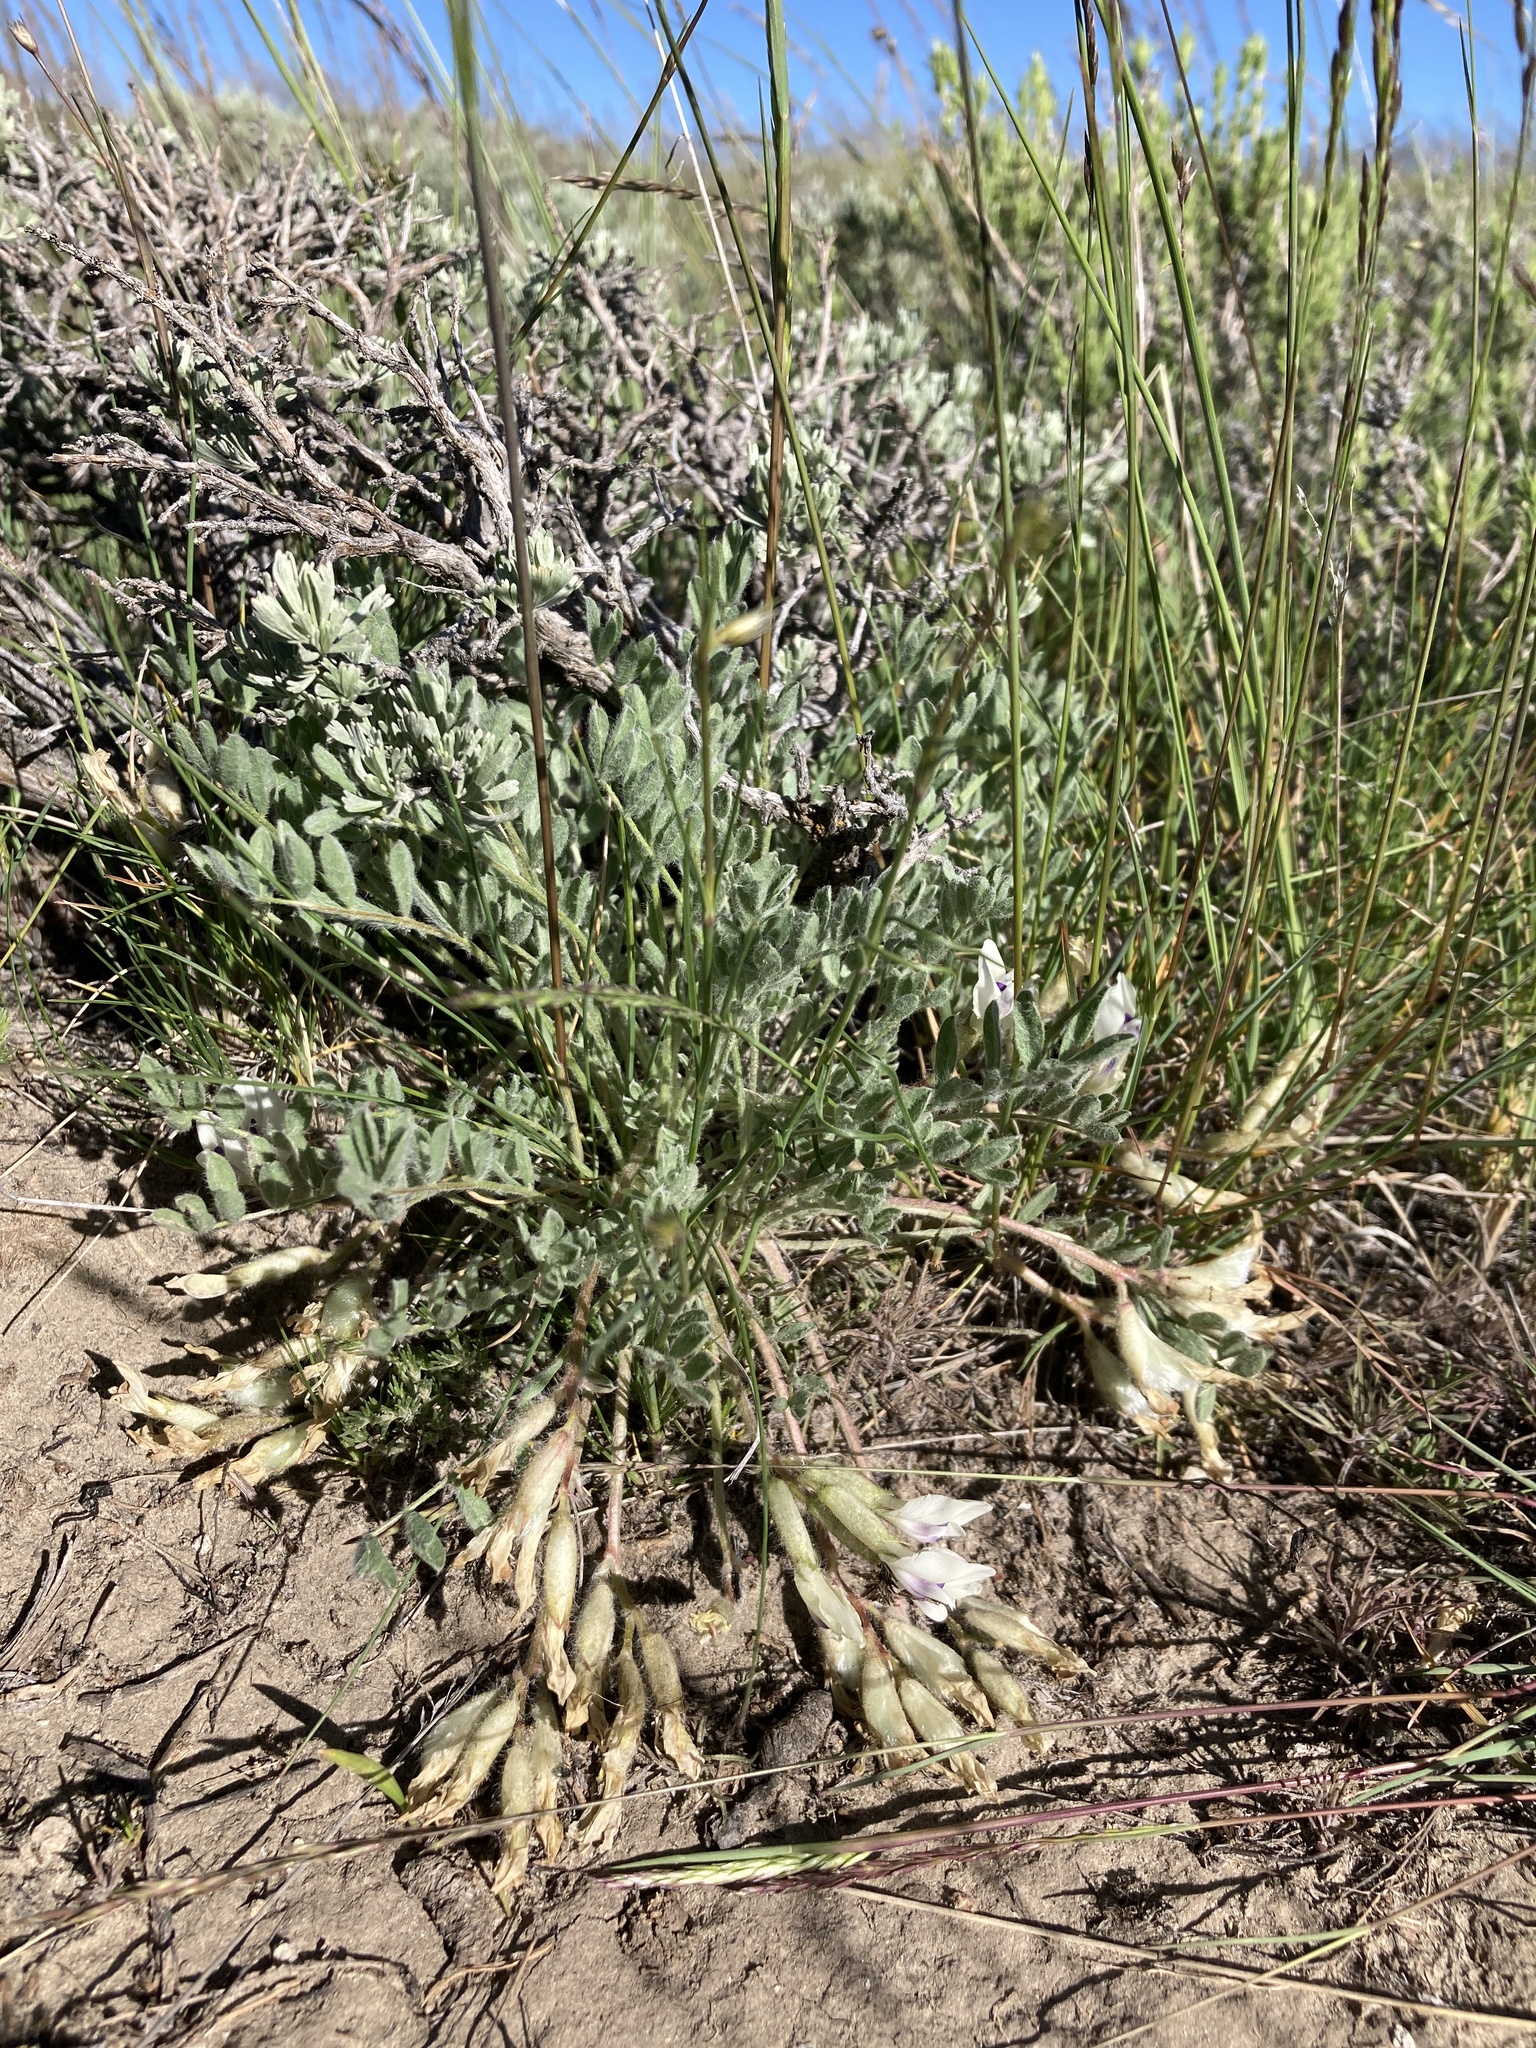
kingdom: Plantae
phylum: Tracheophyta
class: Magnoliopsida
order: Fabales
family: Fabaceae
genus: Astragalus
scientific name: Astragalus purshii
